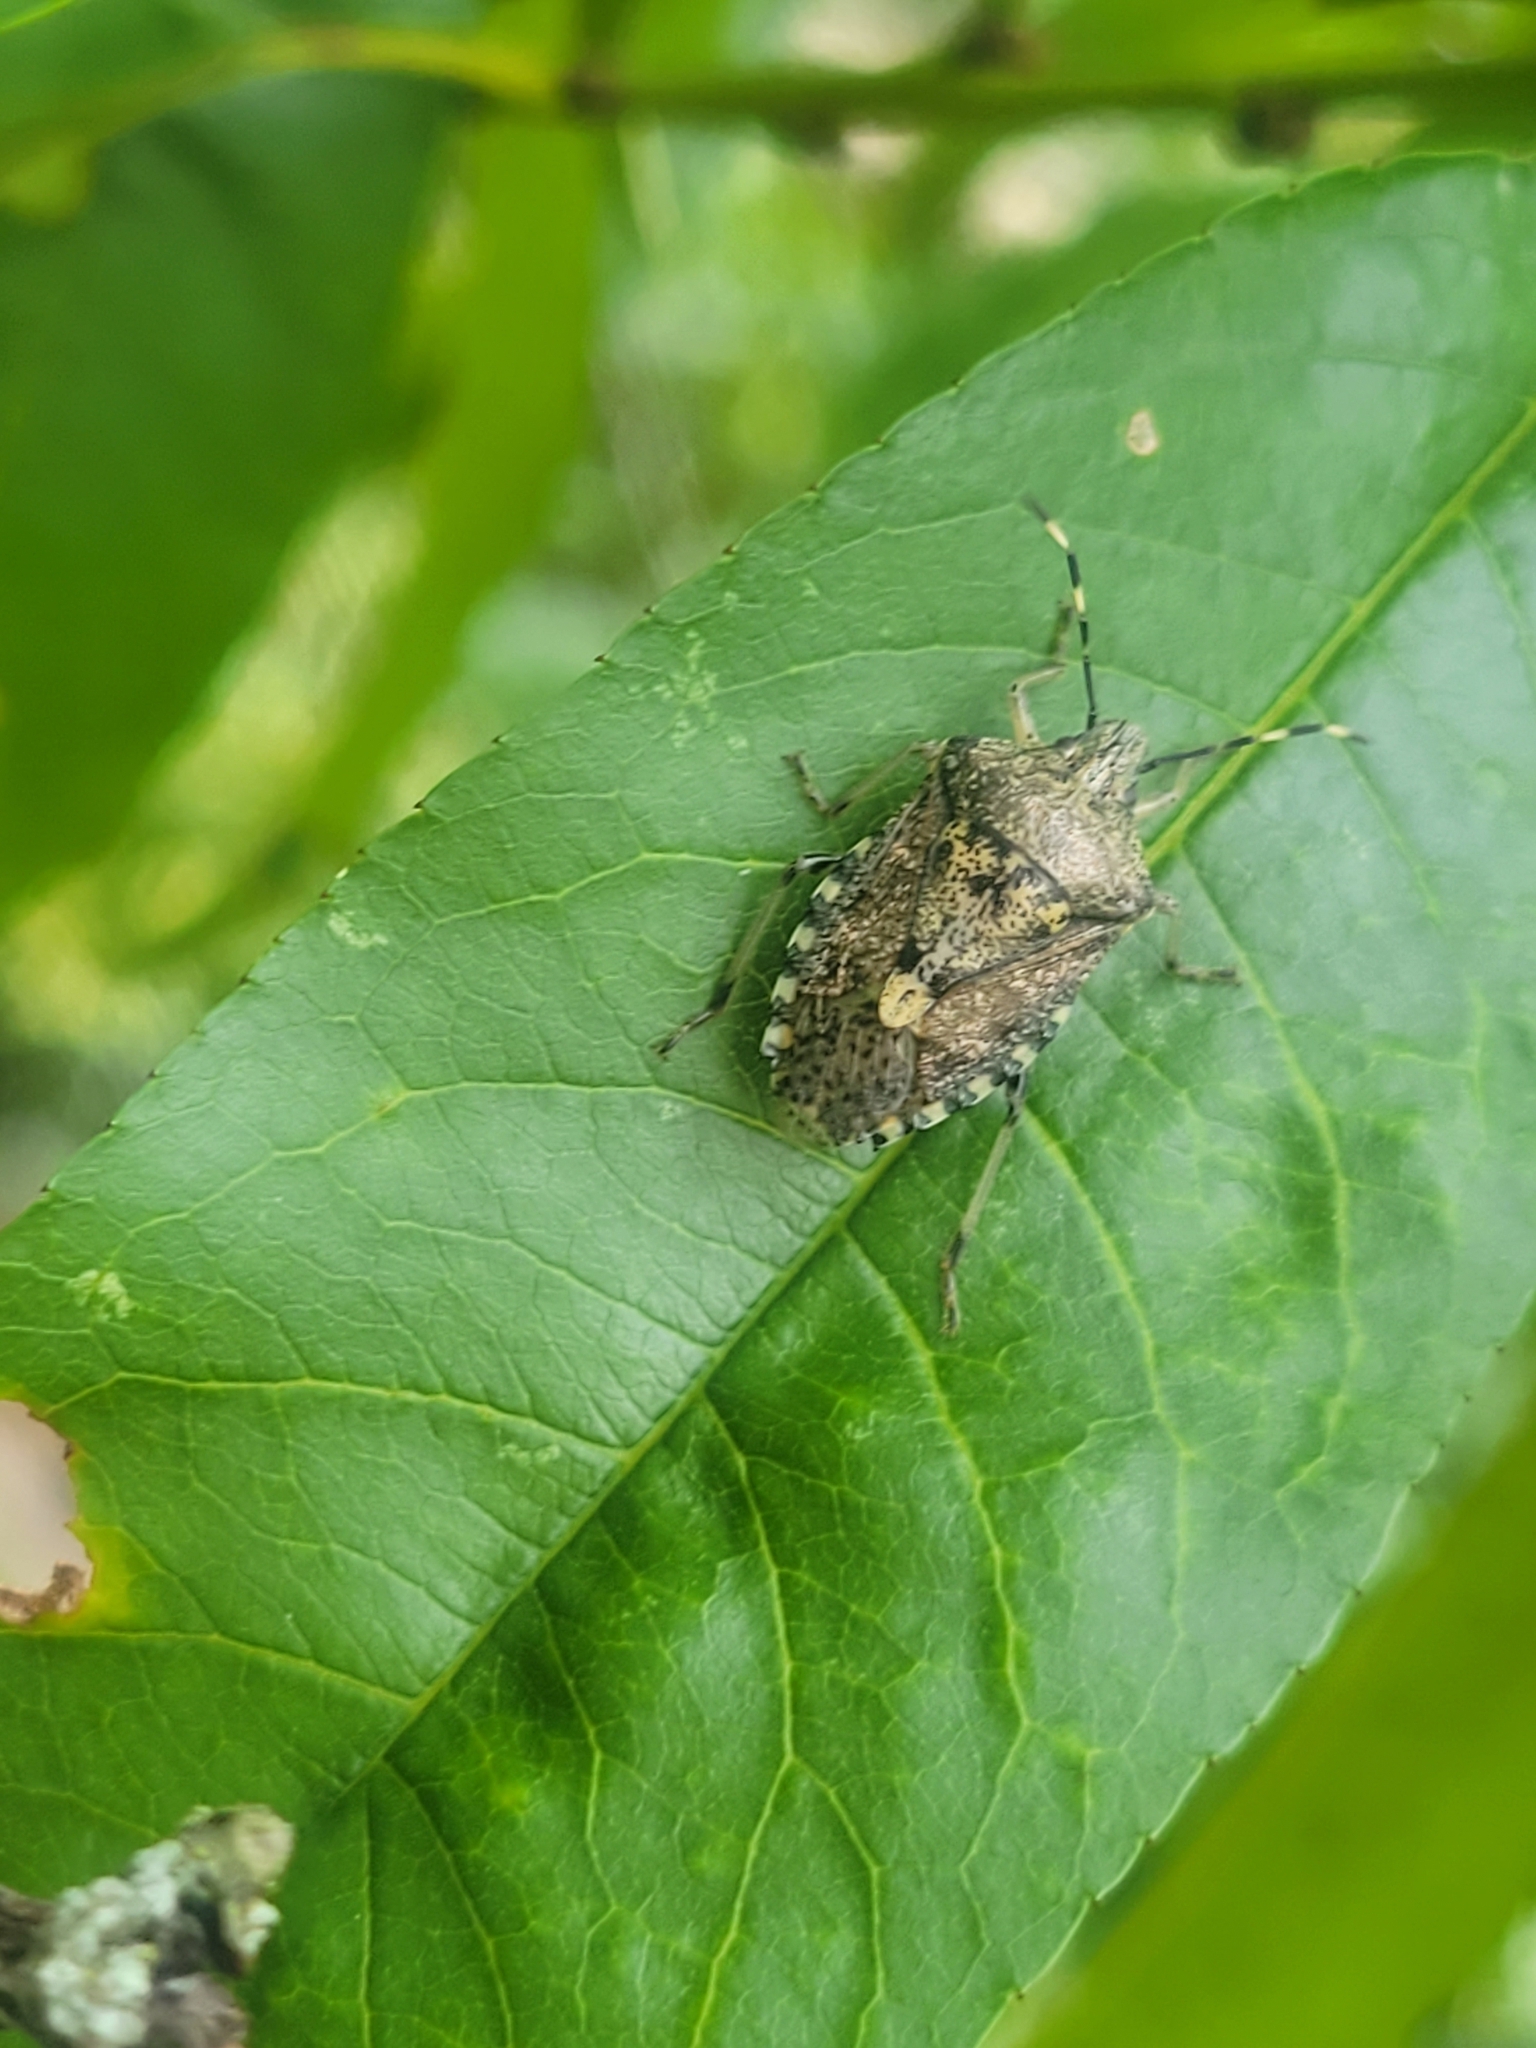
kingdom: Animalia
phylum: Arthropoda
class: Insecta
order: Hemiptera
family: Pentatomidae
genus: Rhaphigaster
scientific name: Rhaphigaster nebulosa
